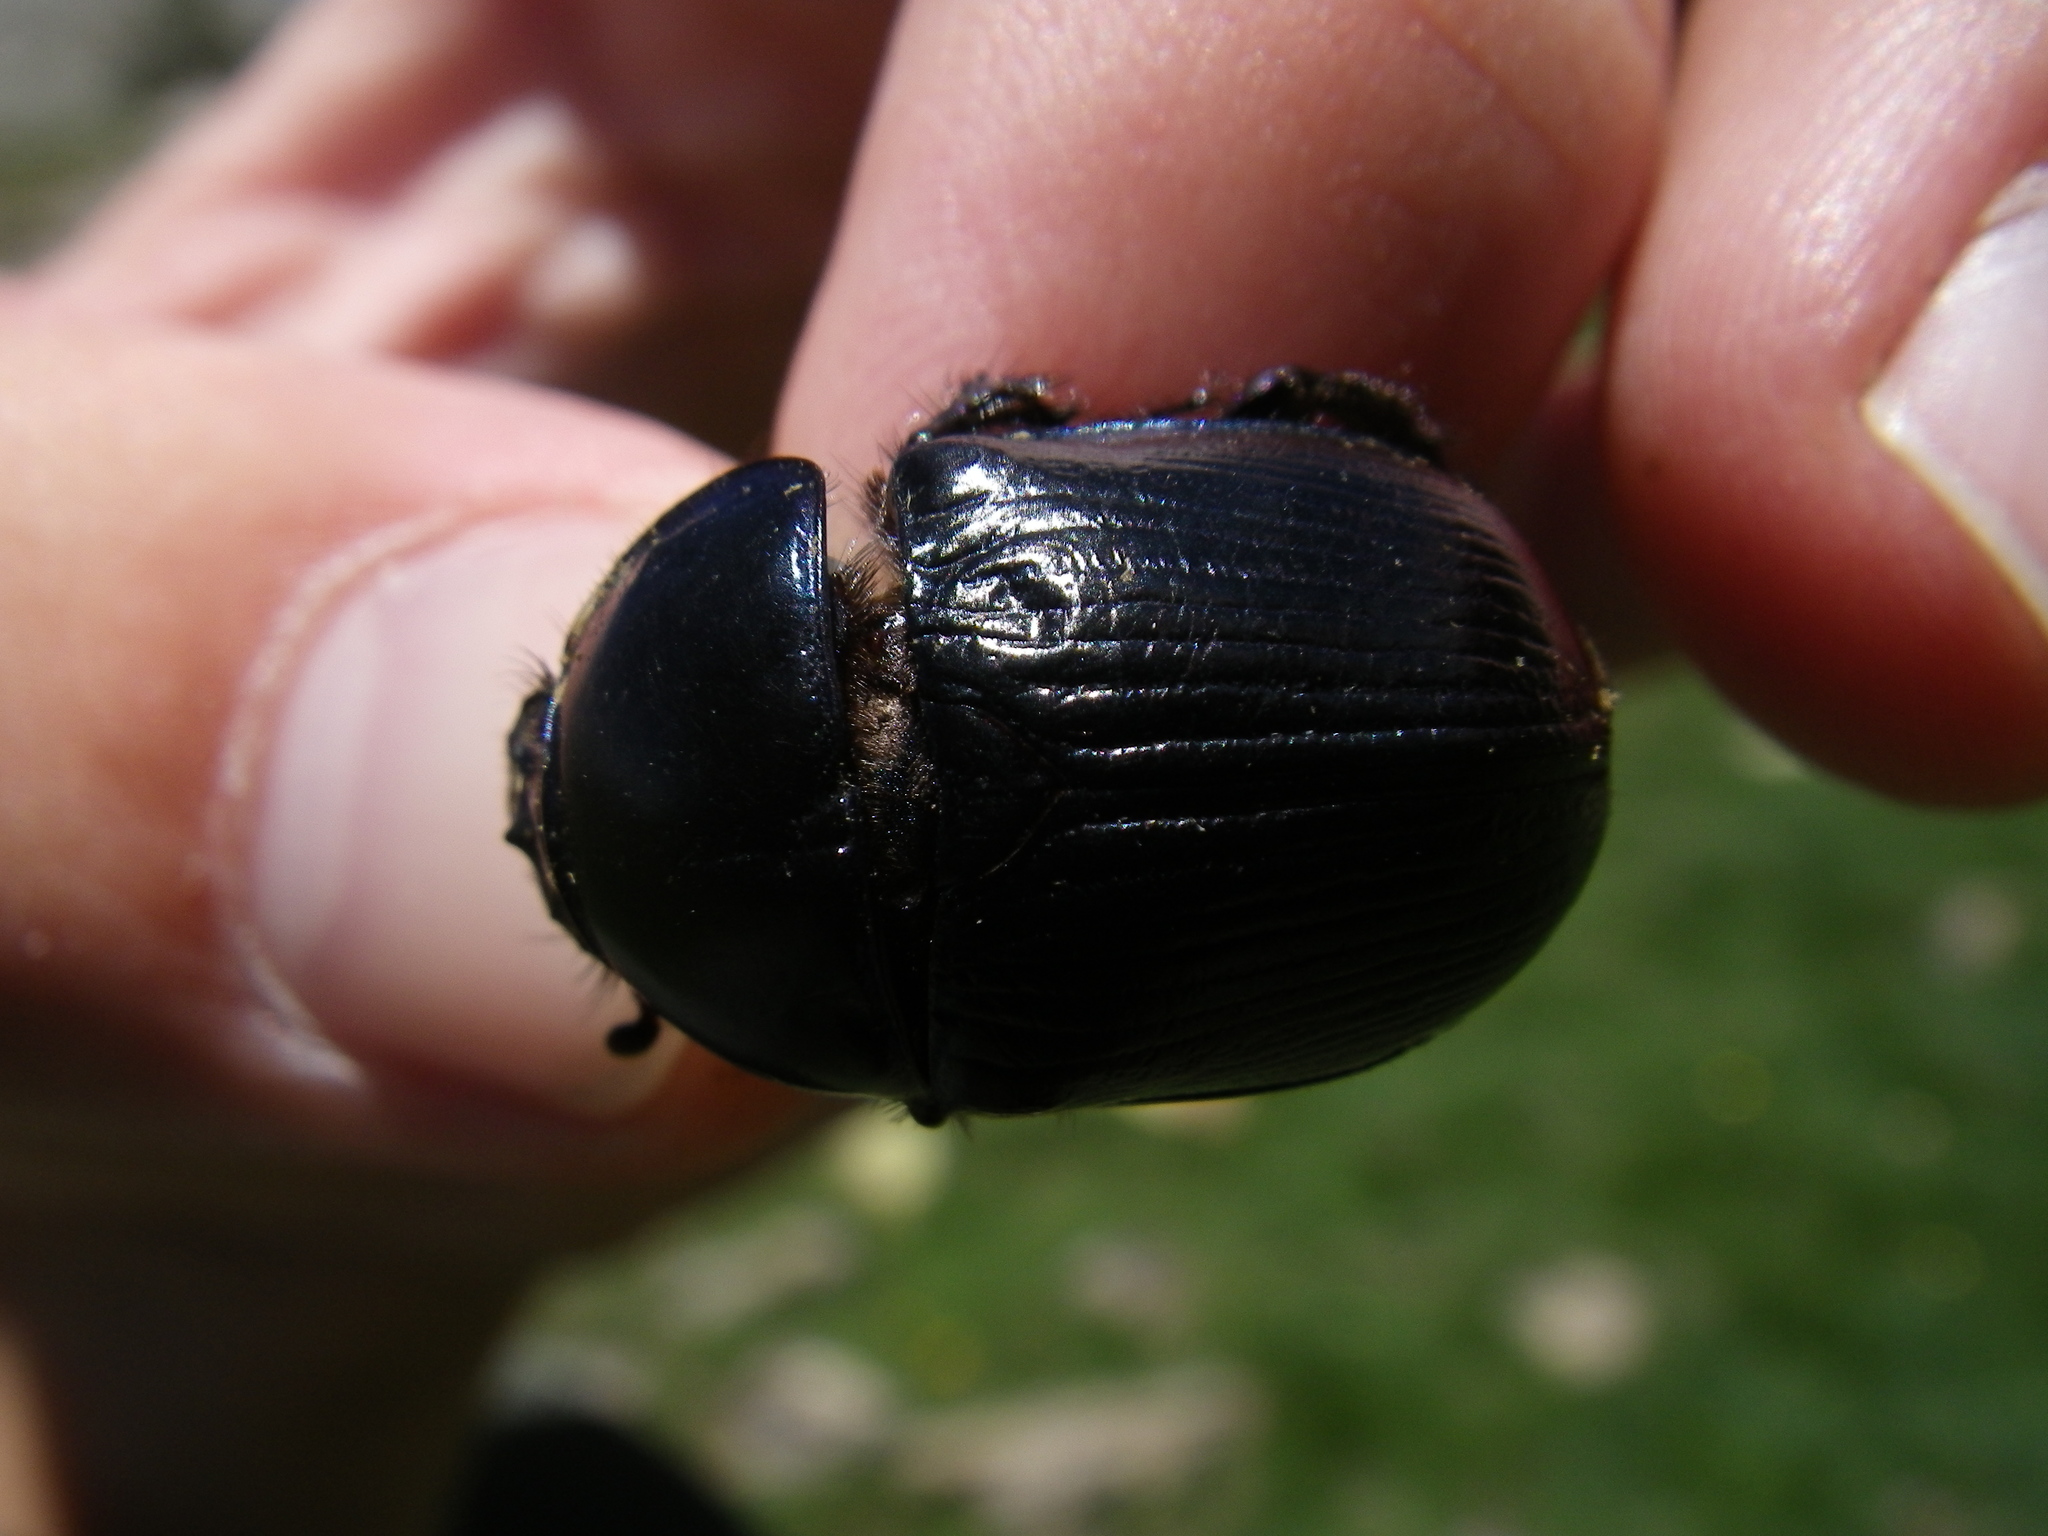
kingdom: Animalia
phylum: Arthropoda
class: Insecta
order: Coleoptera
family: Geotrupidae
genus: Anoplotrupes
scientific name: Anoplotrupes stercorosus
